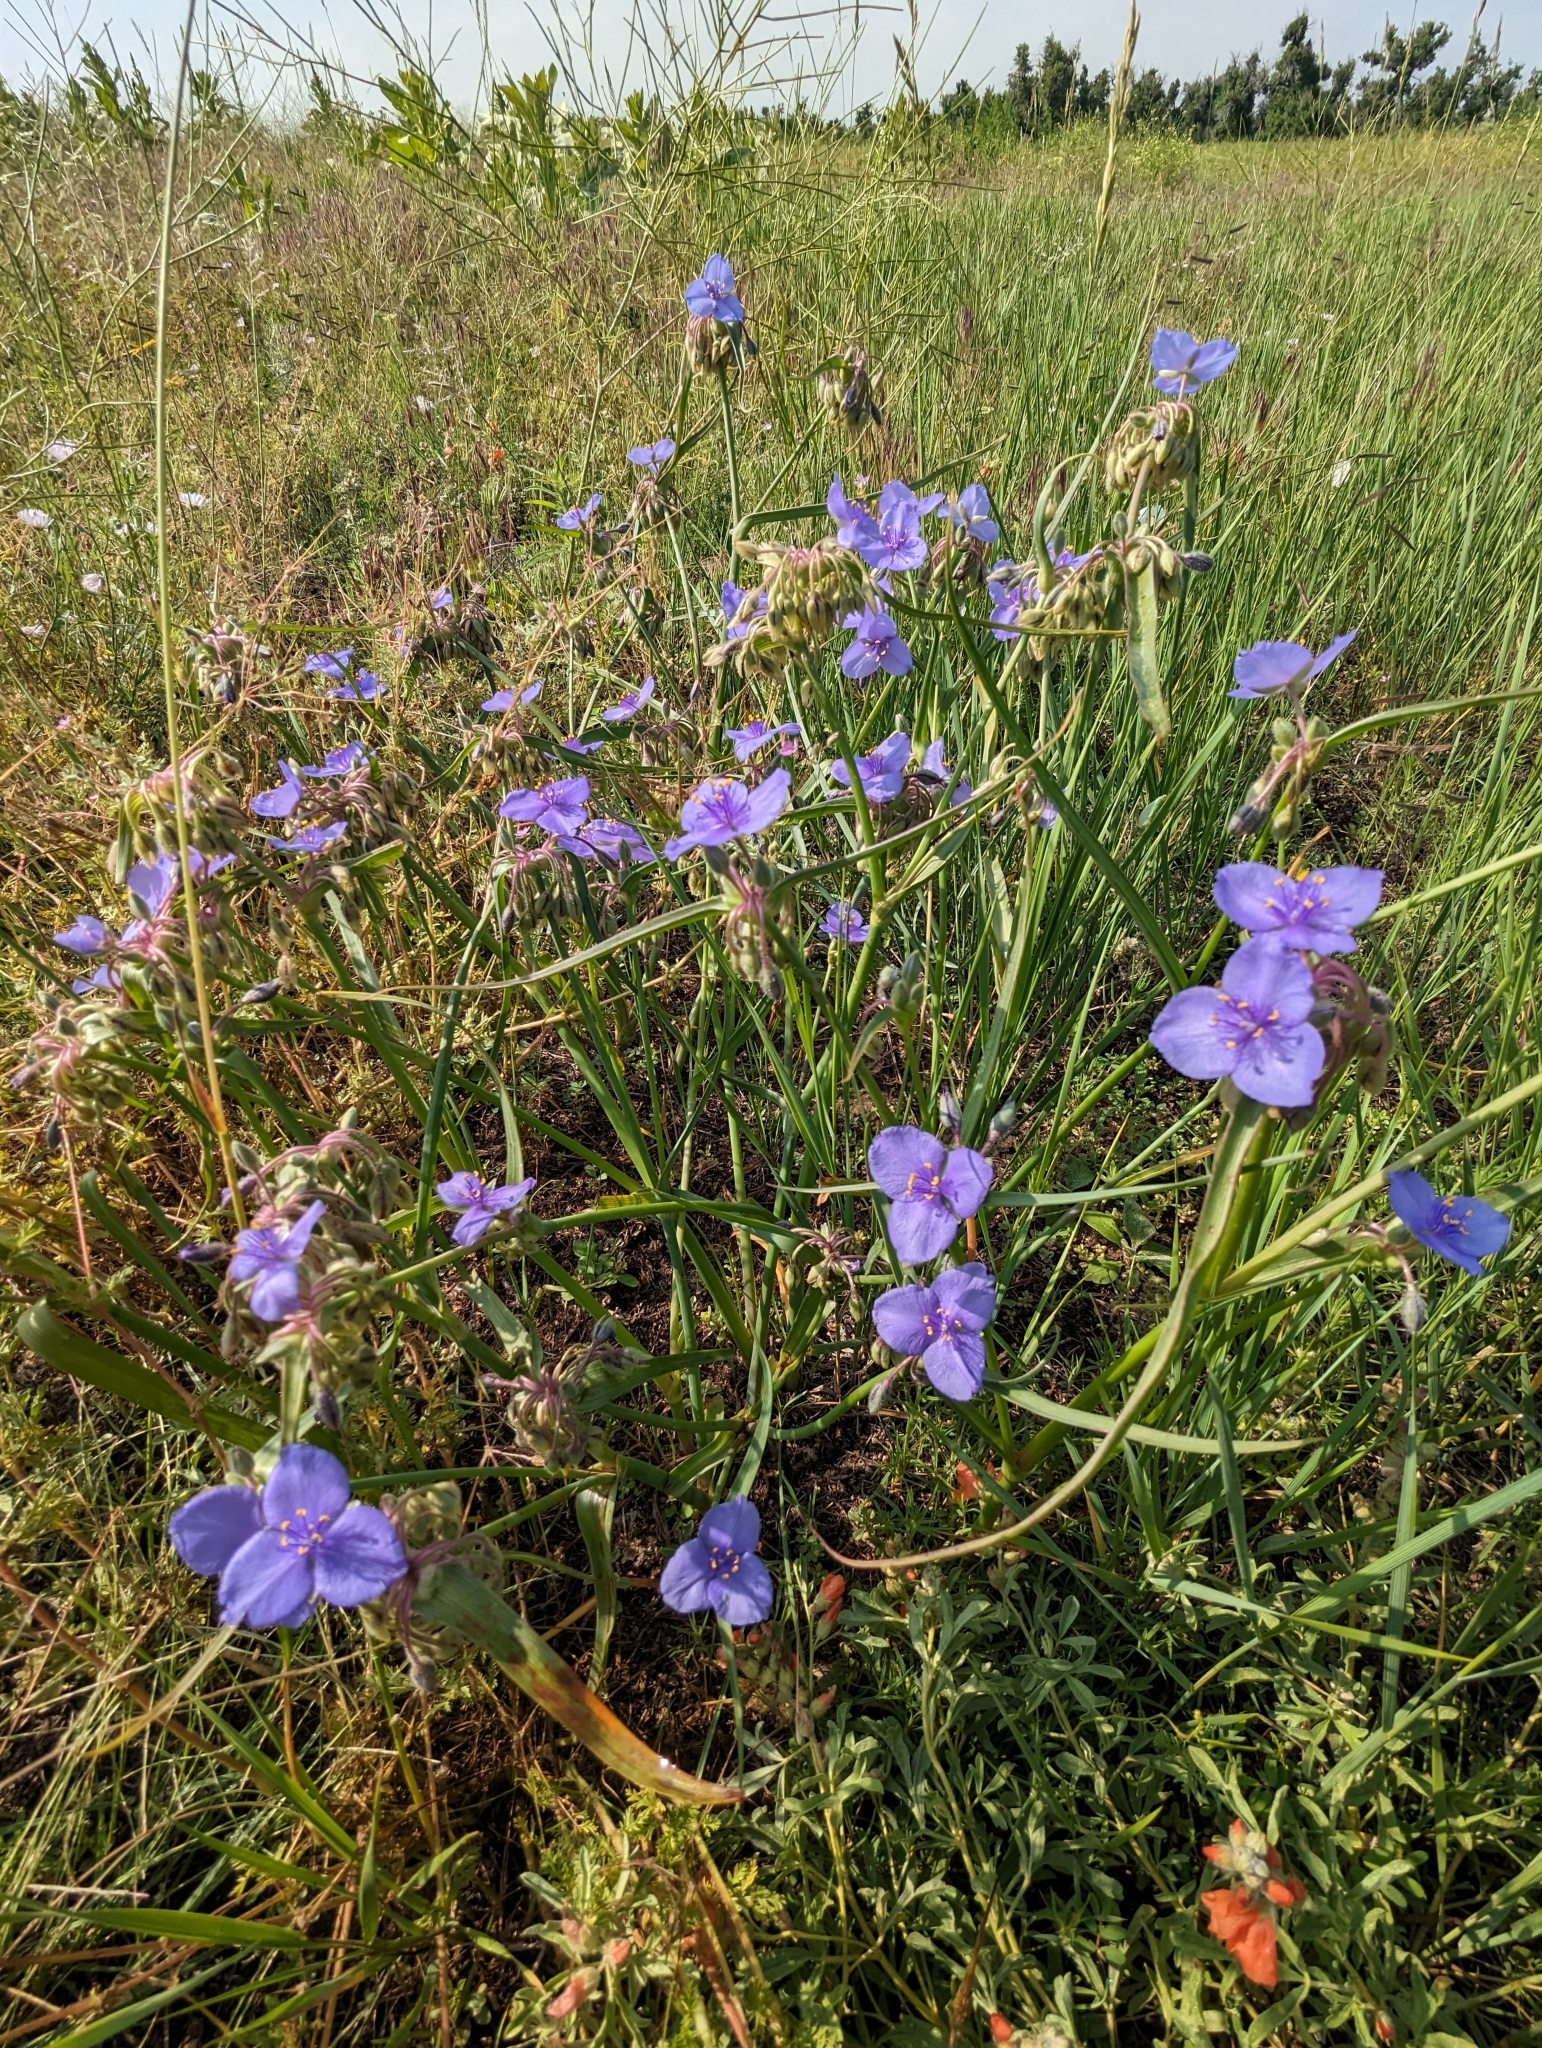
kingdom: Plantae
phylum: Tracheophyta
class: Liliopsida
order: Commelinales
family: Commelinaceae
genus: Tradescantia
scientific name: Tradescantia occidentalis
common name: Prairie spiderwort
